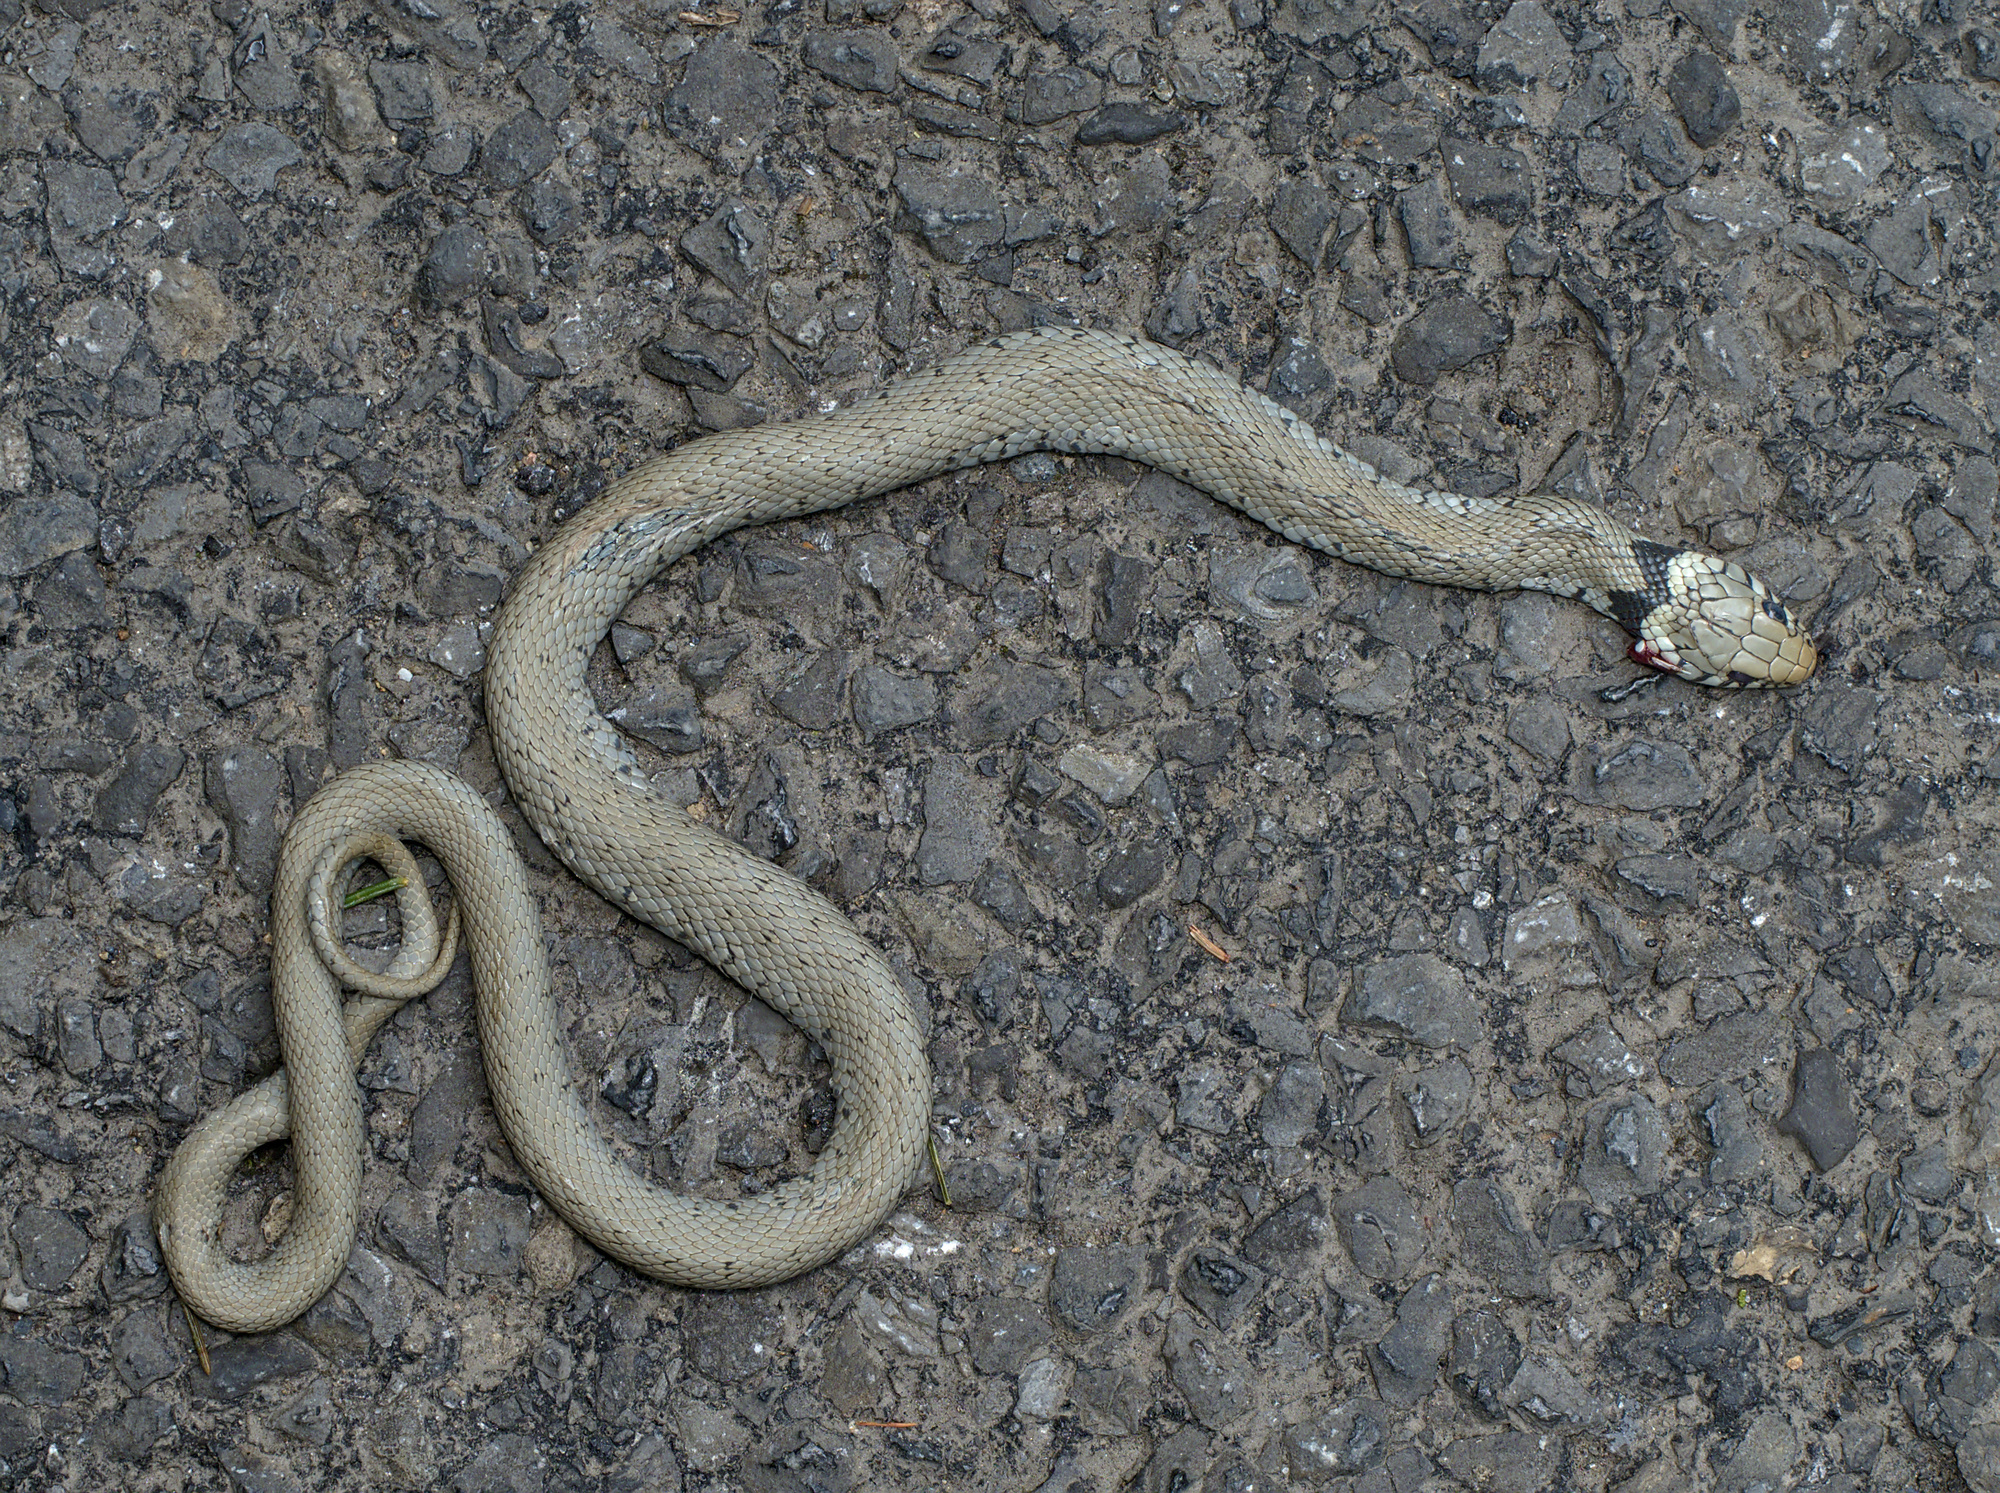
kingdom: Animalia
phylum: Chordata
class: Squamata
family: Colubridae
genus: Natrix
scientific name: Natrix helvetica
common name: Banded grass snake
